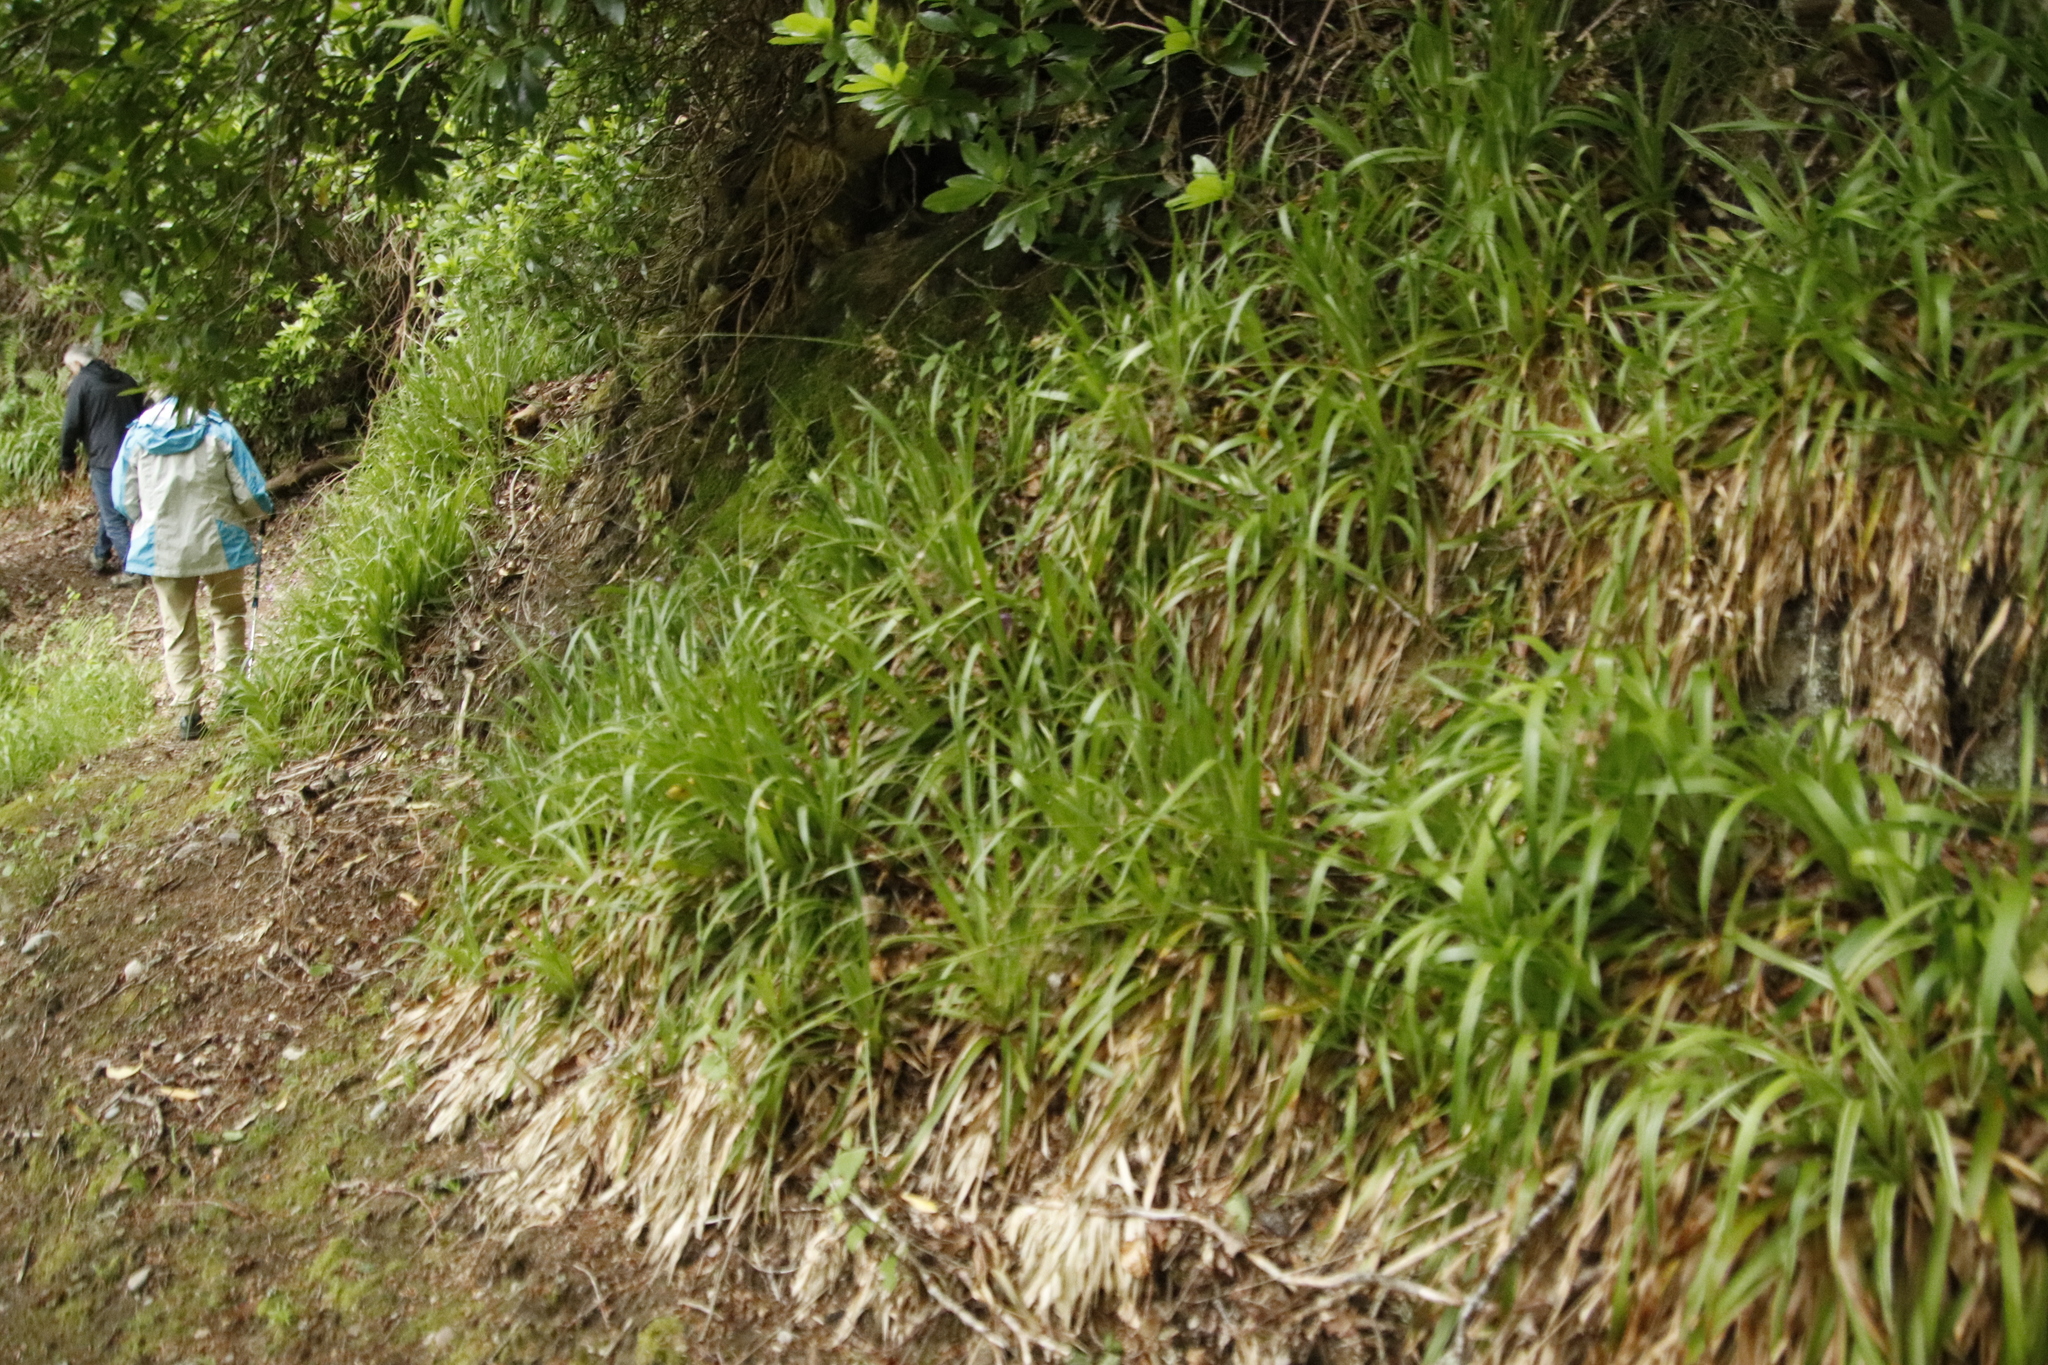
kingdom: Plantae
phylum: Tracheophyta
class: Liliopsida
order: Poales
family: Juncaceae
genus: Luzula
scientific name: Luzula sylvatica
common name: Great wood-rush
